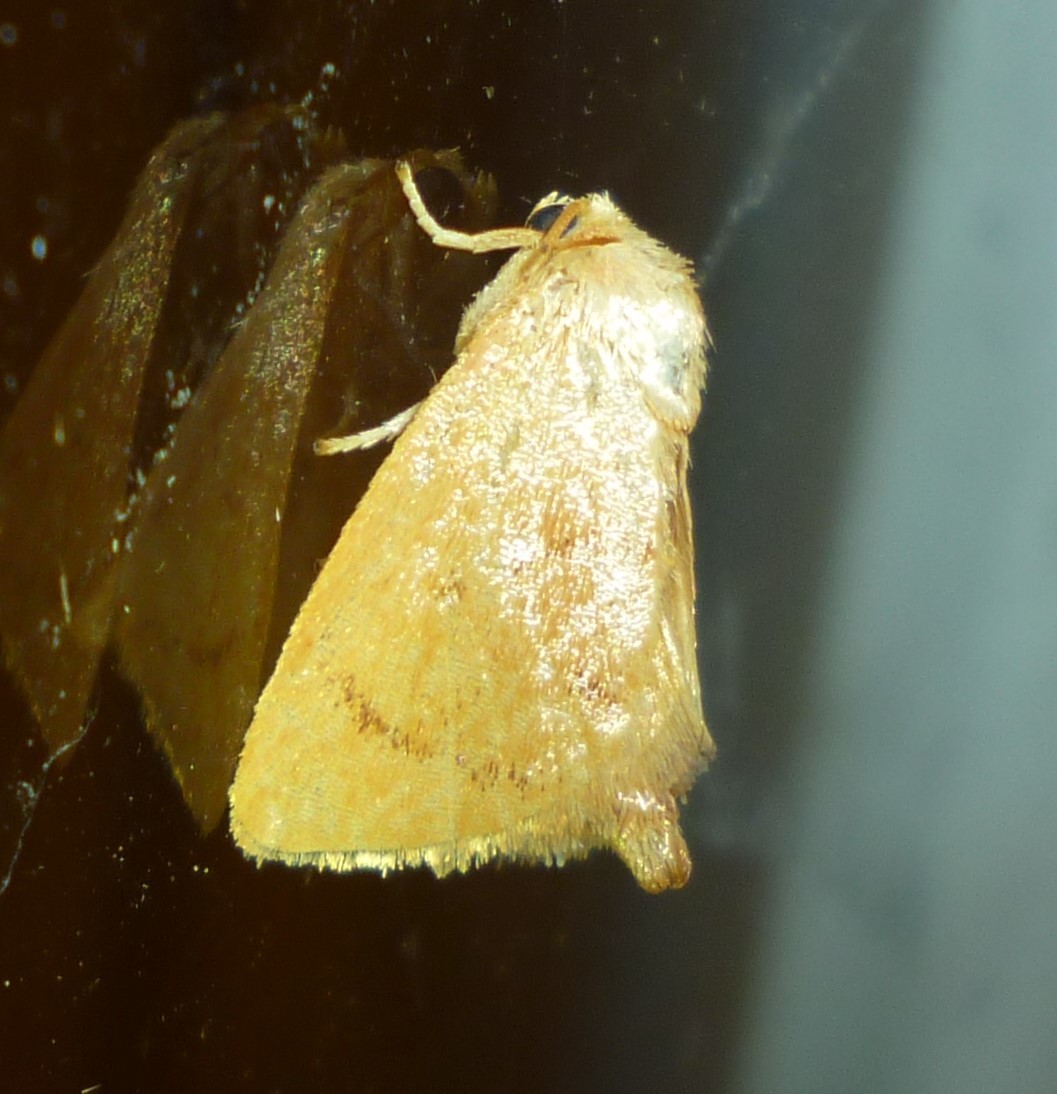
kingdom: Animalia
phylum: Arthropoda
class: Insecta
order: Lepidoptera
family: Limacodidae
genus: Tortricidia
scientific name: Tortricidia flexuosa
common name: Abbreviated button slug moth
